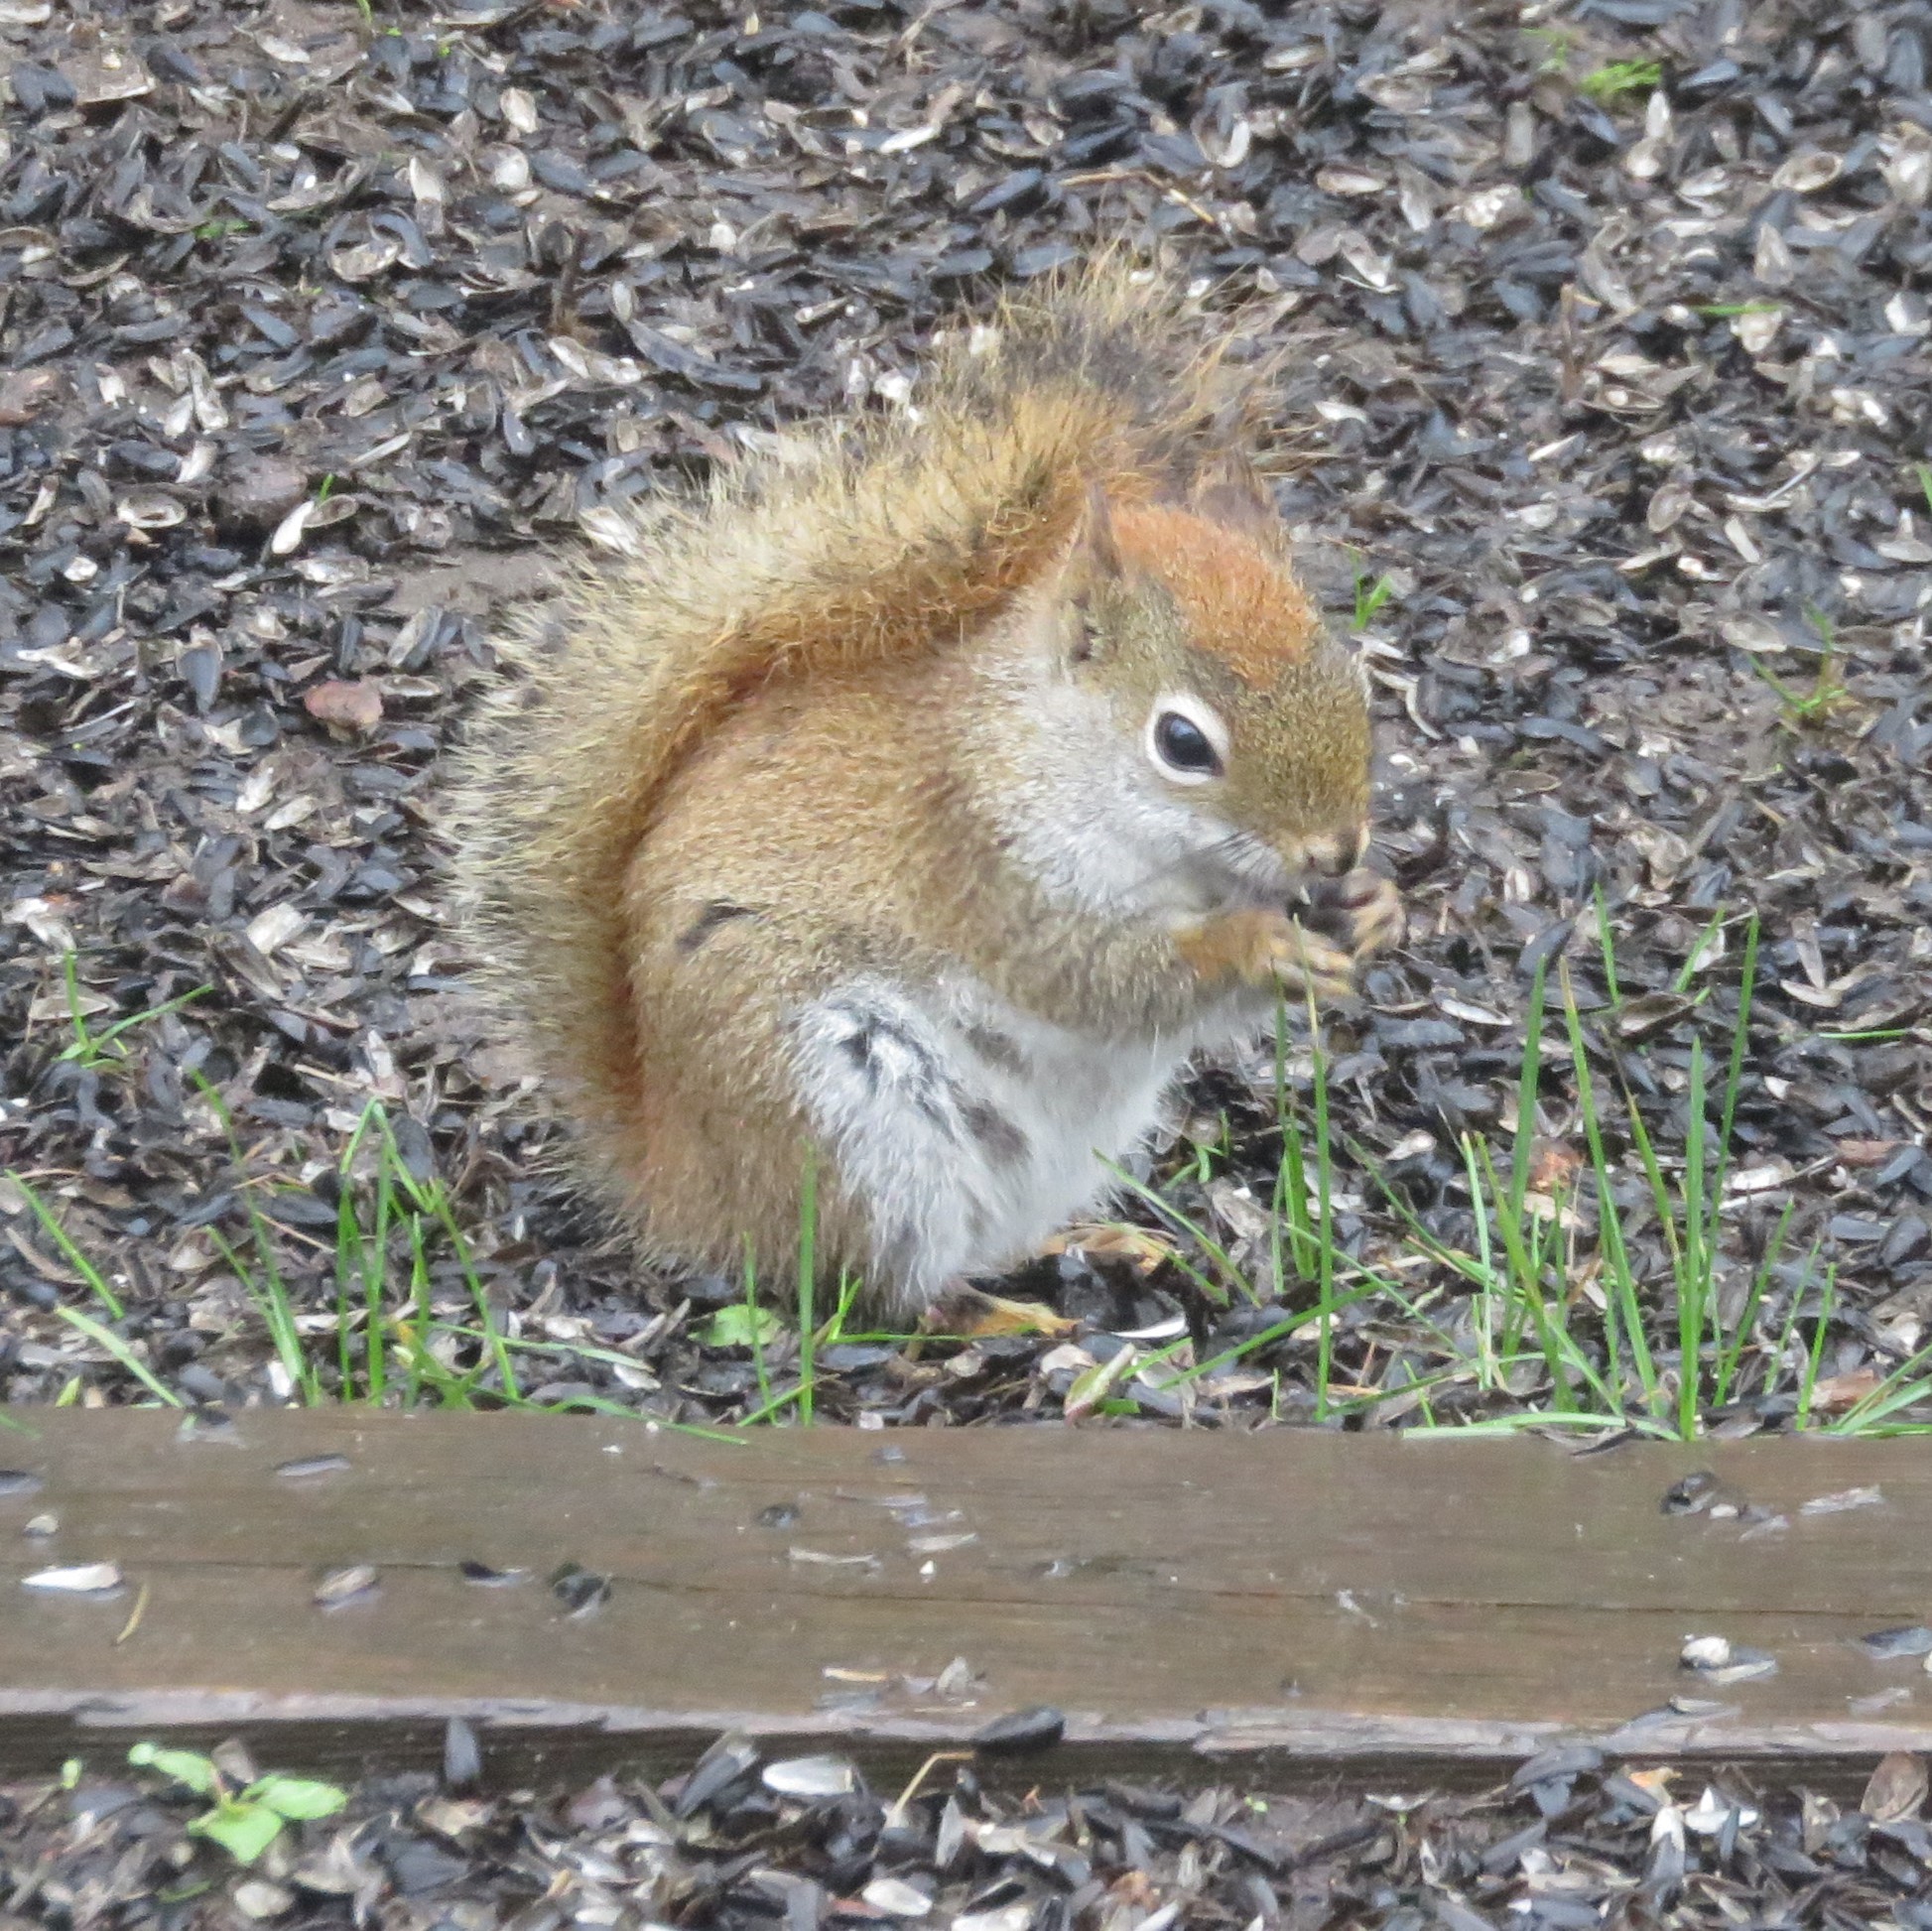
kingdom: Animalia
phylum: Chordata
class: Mammalia
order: Rodentia
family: Sciuridae
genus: Tamiasciurus
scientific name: Tamiasciurus hudsonicus
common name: Red squirrel
